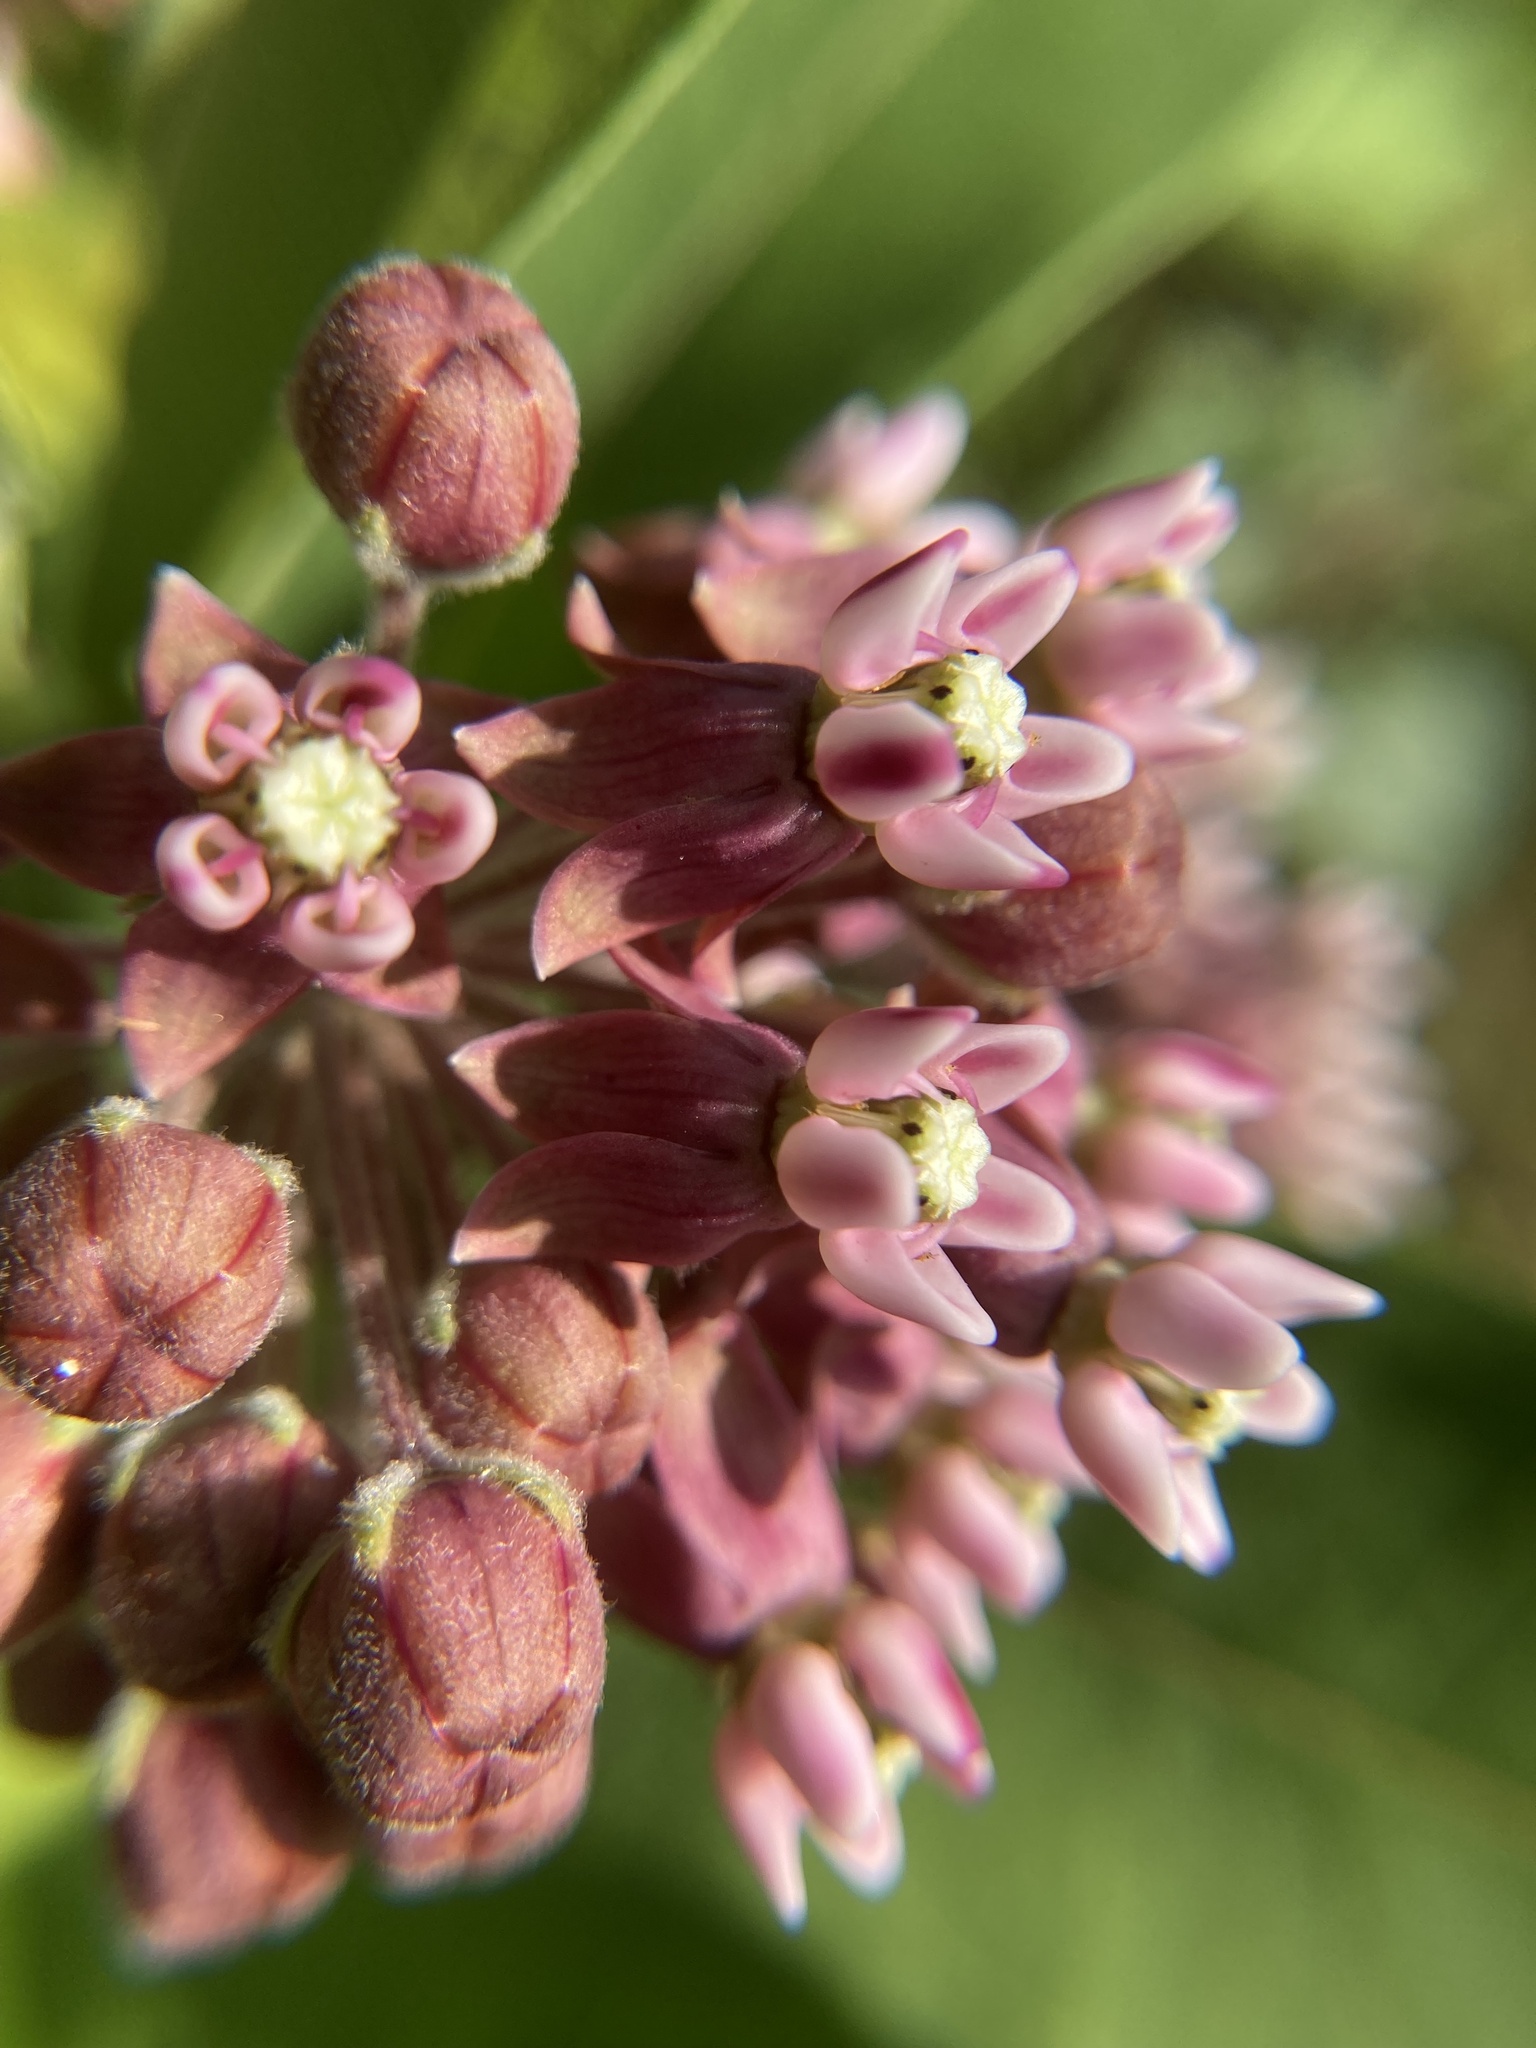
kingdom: Plantae
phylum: Tracheophyta
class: Magnoliopsida
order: Gentianales
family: Apocynaceae
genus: Asclepias
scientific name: Asclepias syriaca
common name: Common milkweed
